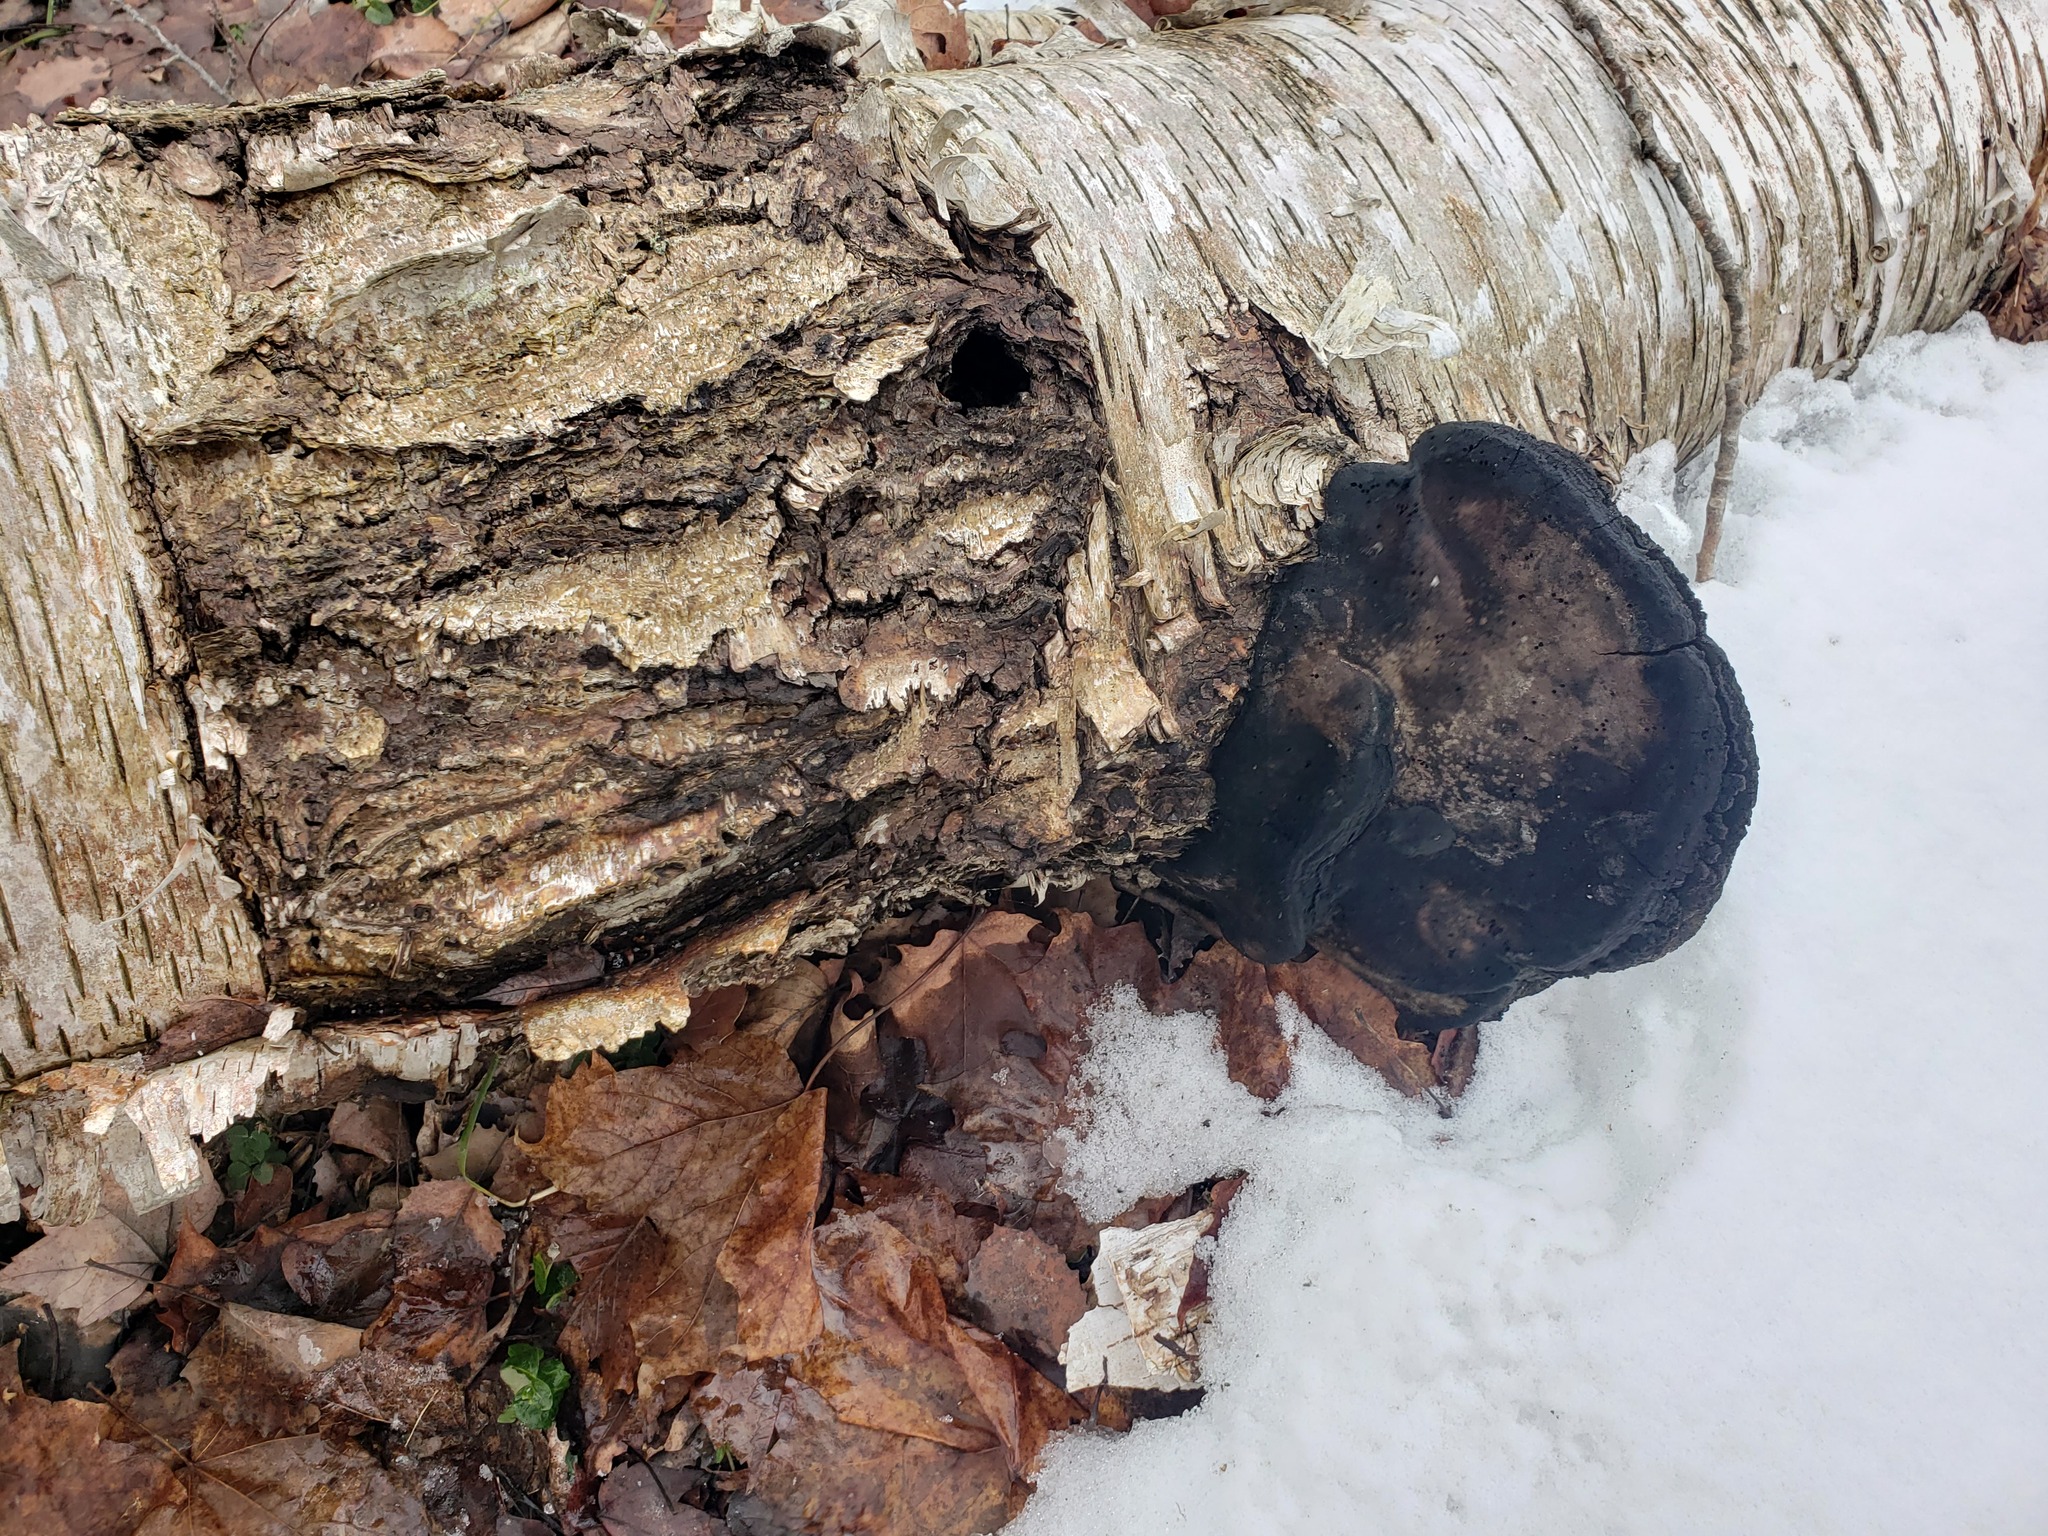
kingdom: Plantae
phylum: Tracheophyta
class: Magnoliopsida
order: Fagales
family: Betulaceae
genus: Betula
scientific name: Betula papyrifera
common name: Paper birch
